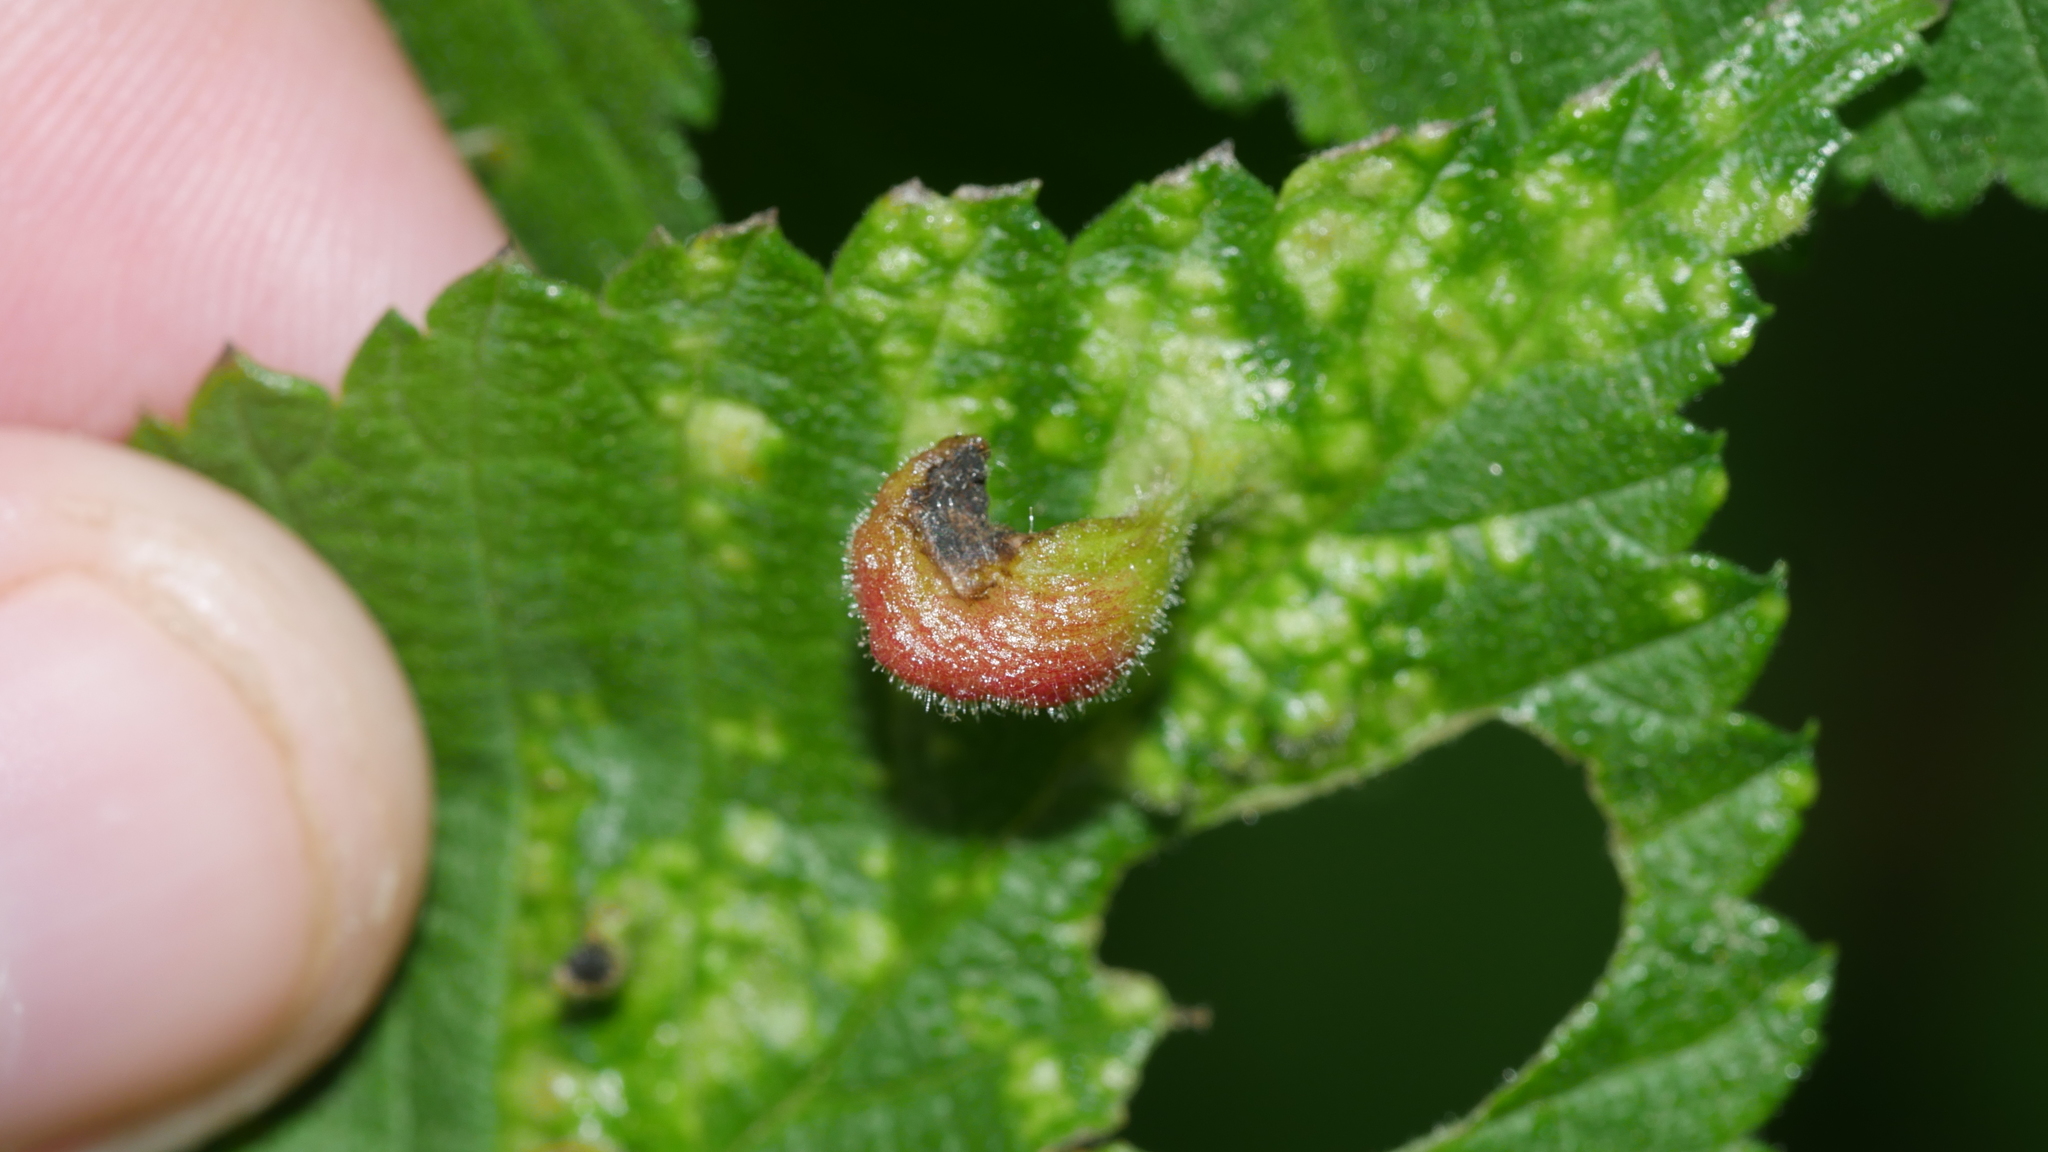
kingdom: Animalia
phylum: Arthropoda
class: Insecta
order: Hemiptera
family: Aphididae
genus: Tetraneura
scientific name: Tetraneura nigriabdominalis
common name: Aphid
